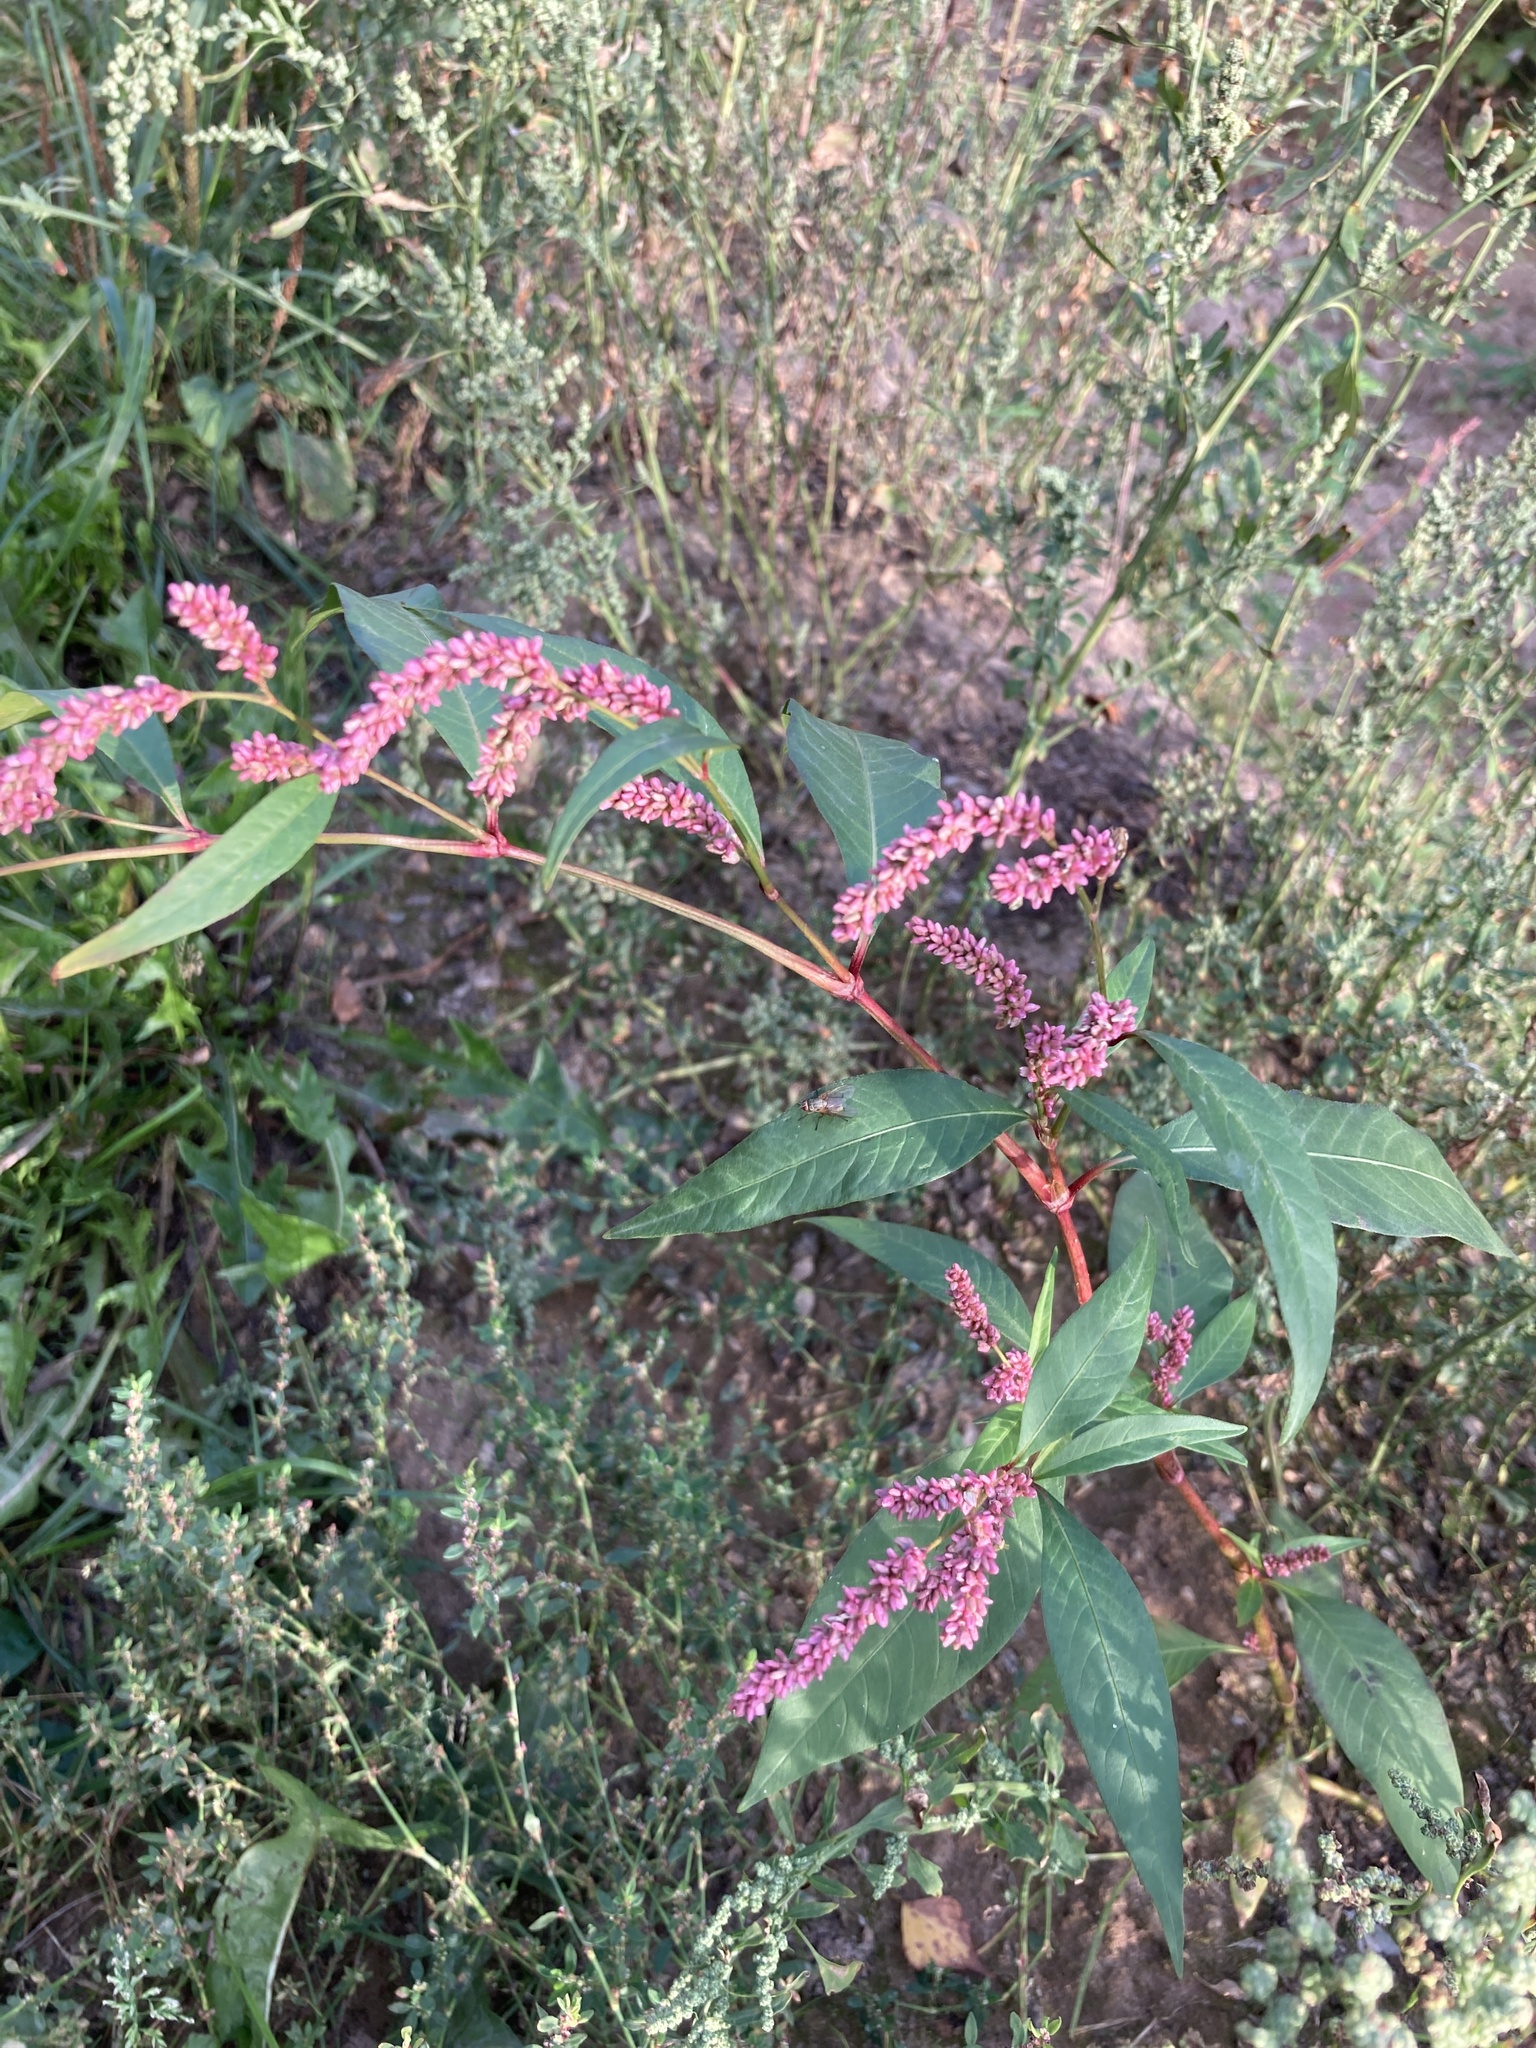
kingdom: Plantae
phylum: Tracheophyta
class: Magnoliopsida
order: Caryophyllales
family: Polygonaceae
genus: Persicaria
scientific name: Persicaria lapathifolia
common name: Curlytop knotweed
